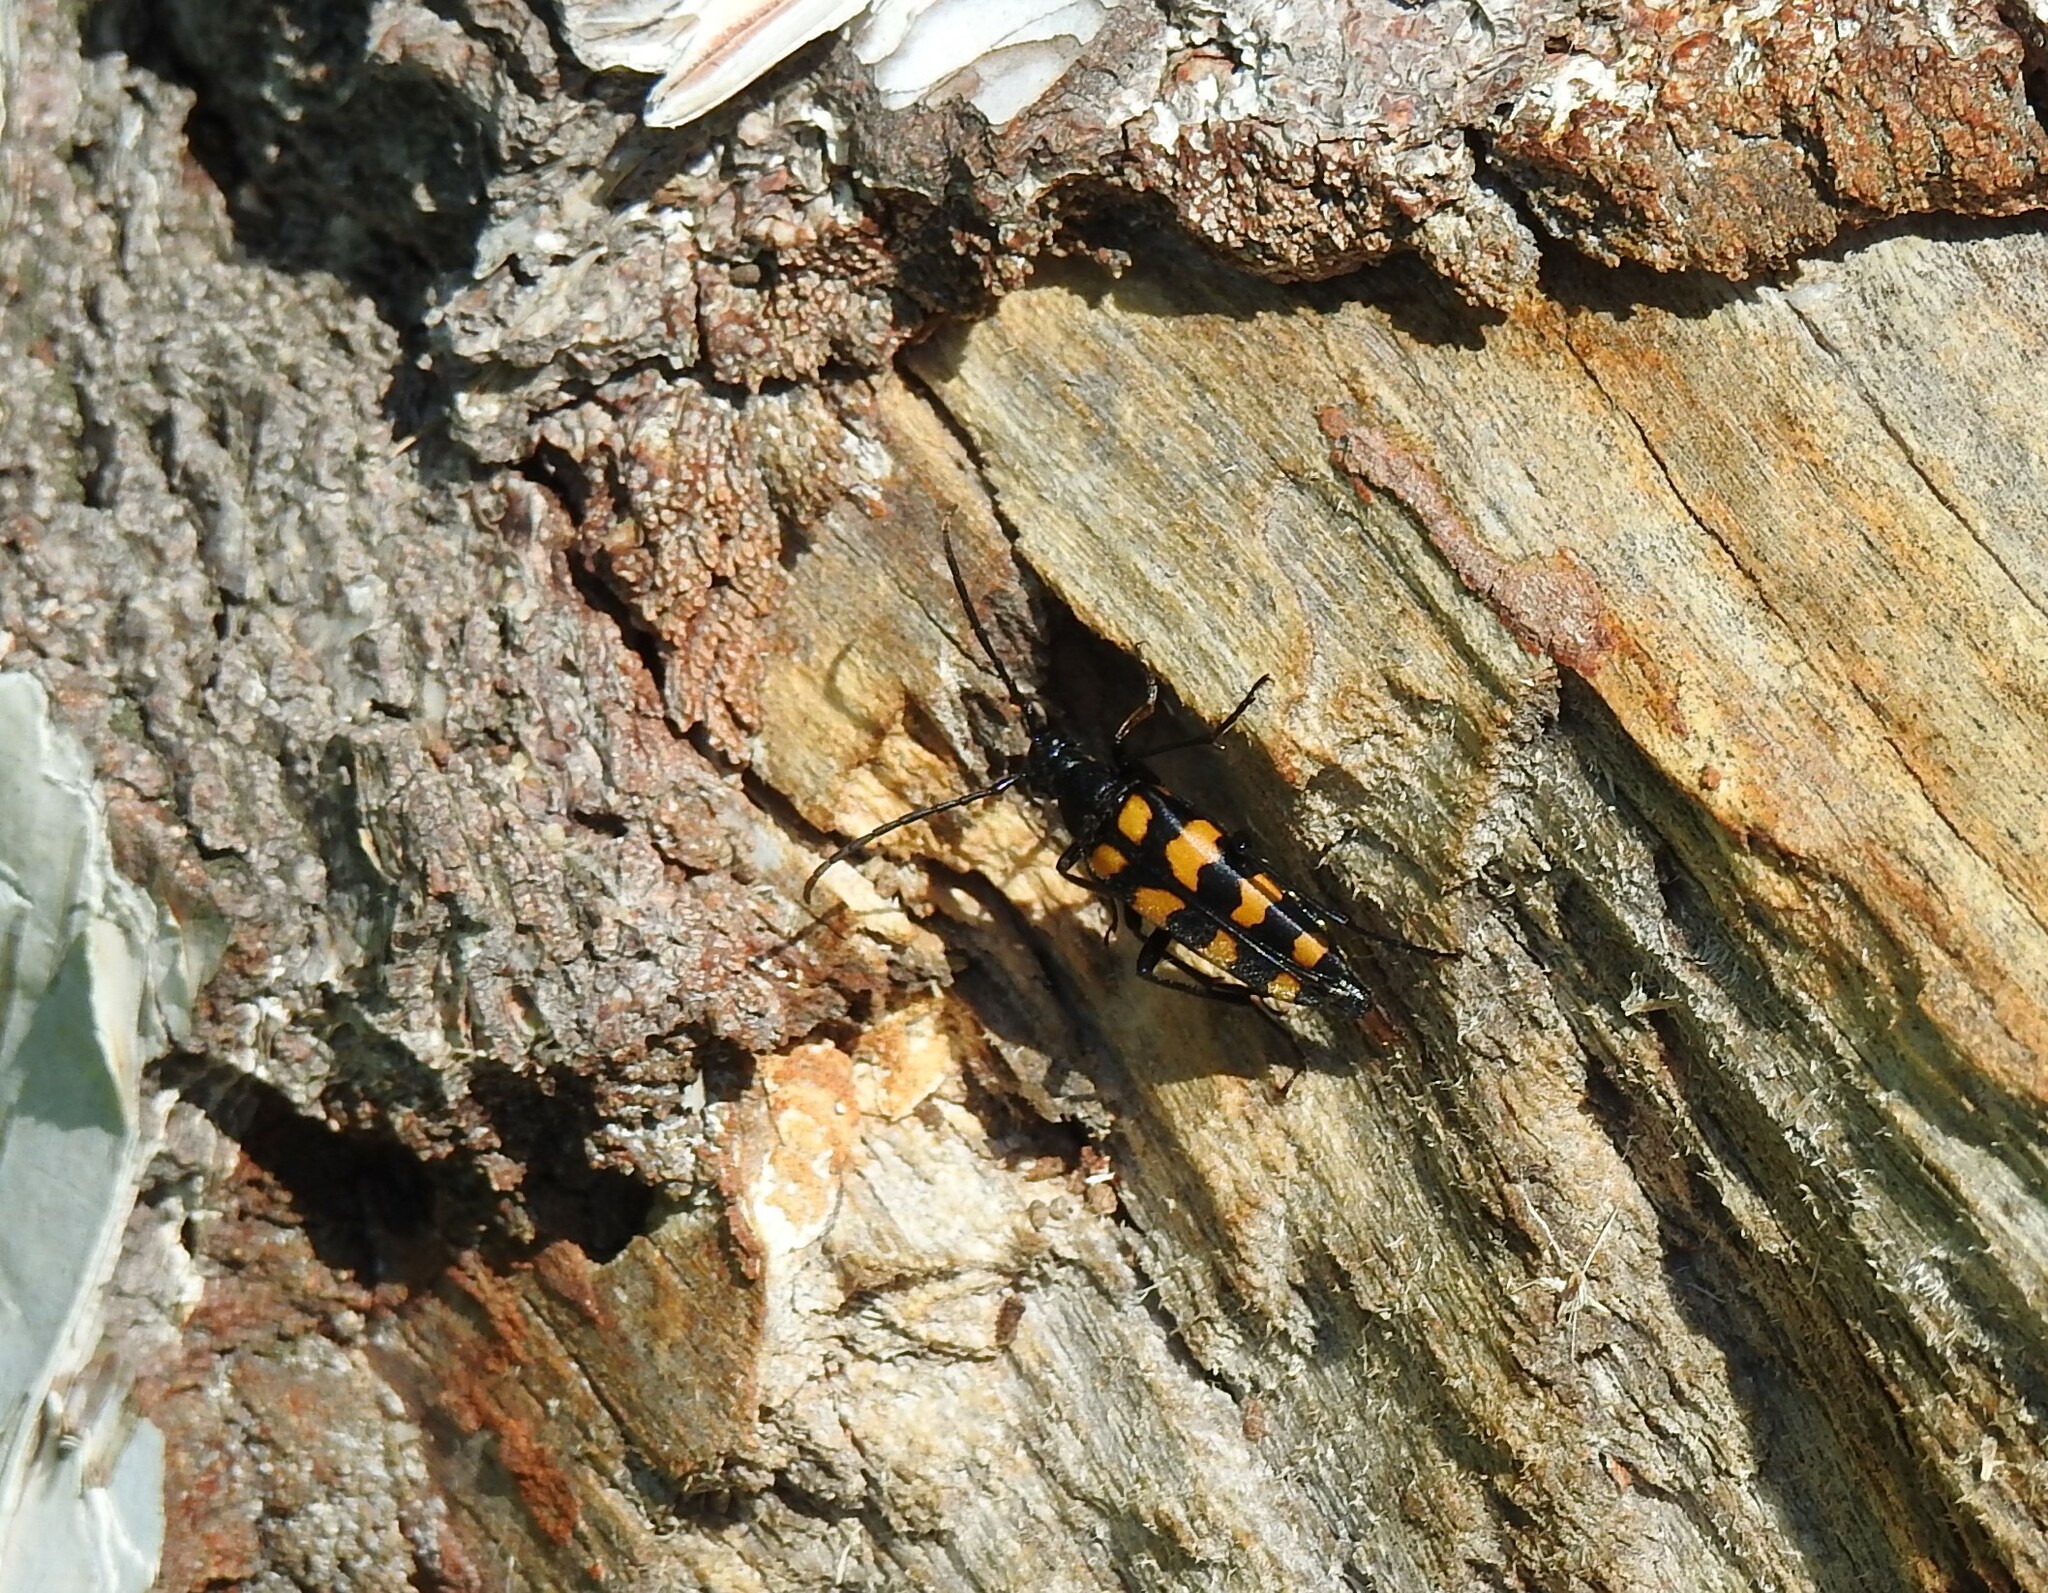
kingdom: Animalia
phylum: Arthropoda
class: Insecta
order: Coleoptera
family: Cerambycidae
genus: Leptura
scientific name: Leptura quadrifasciata
